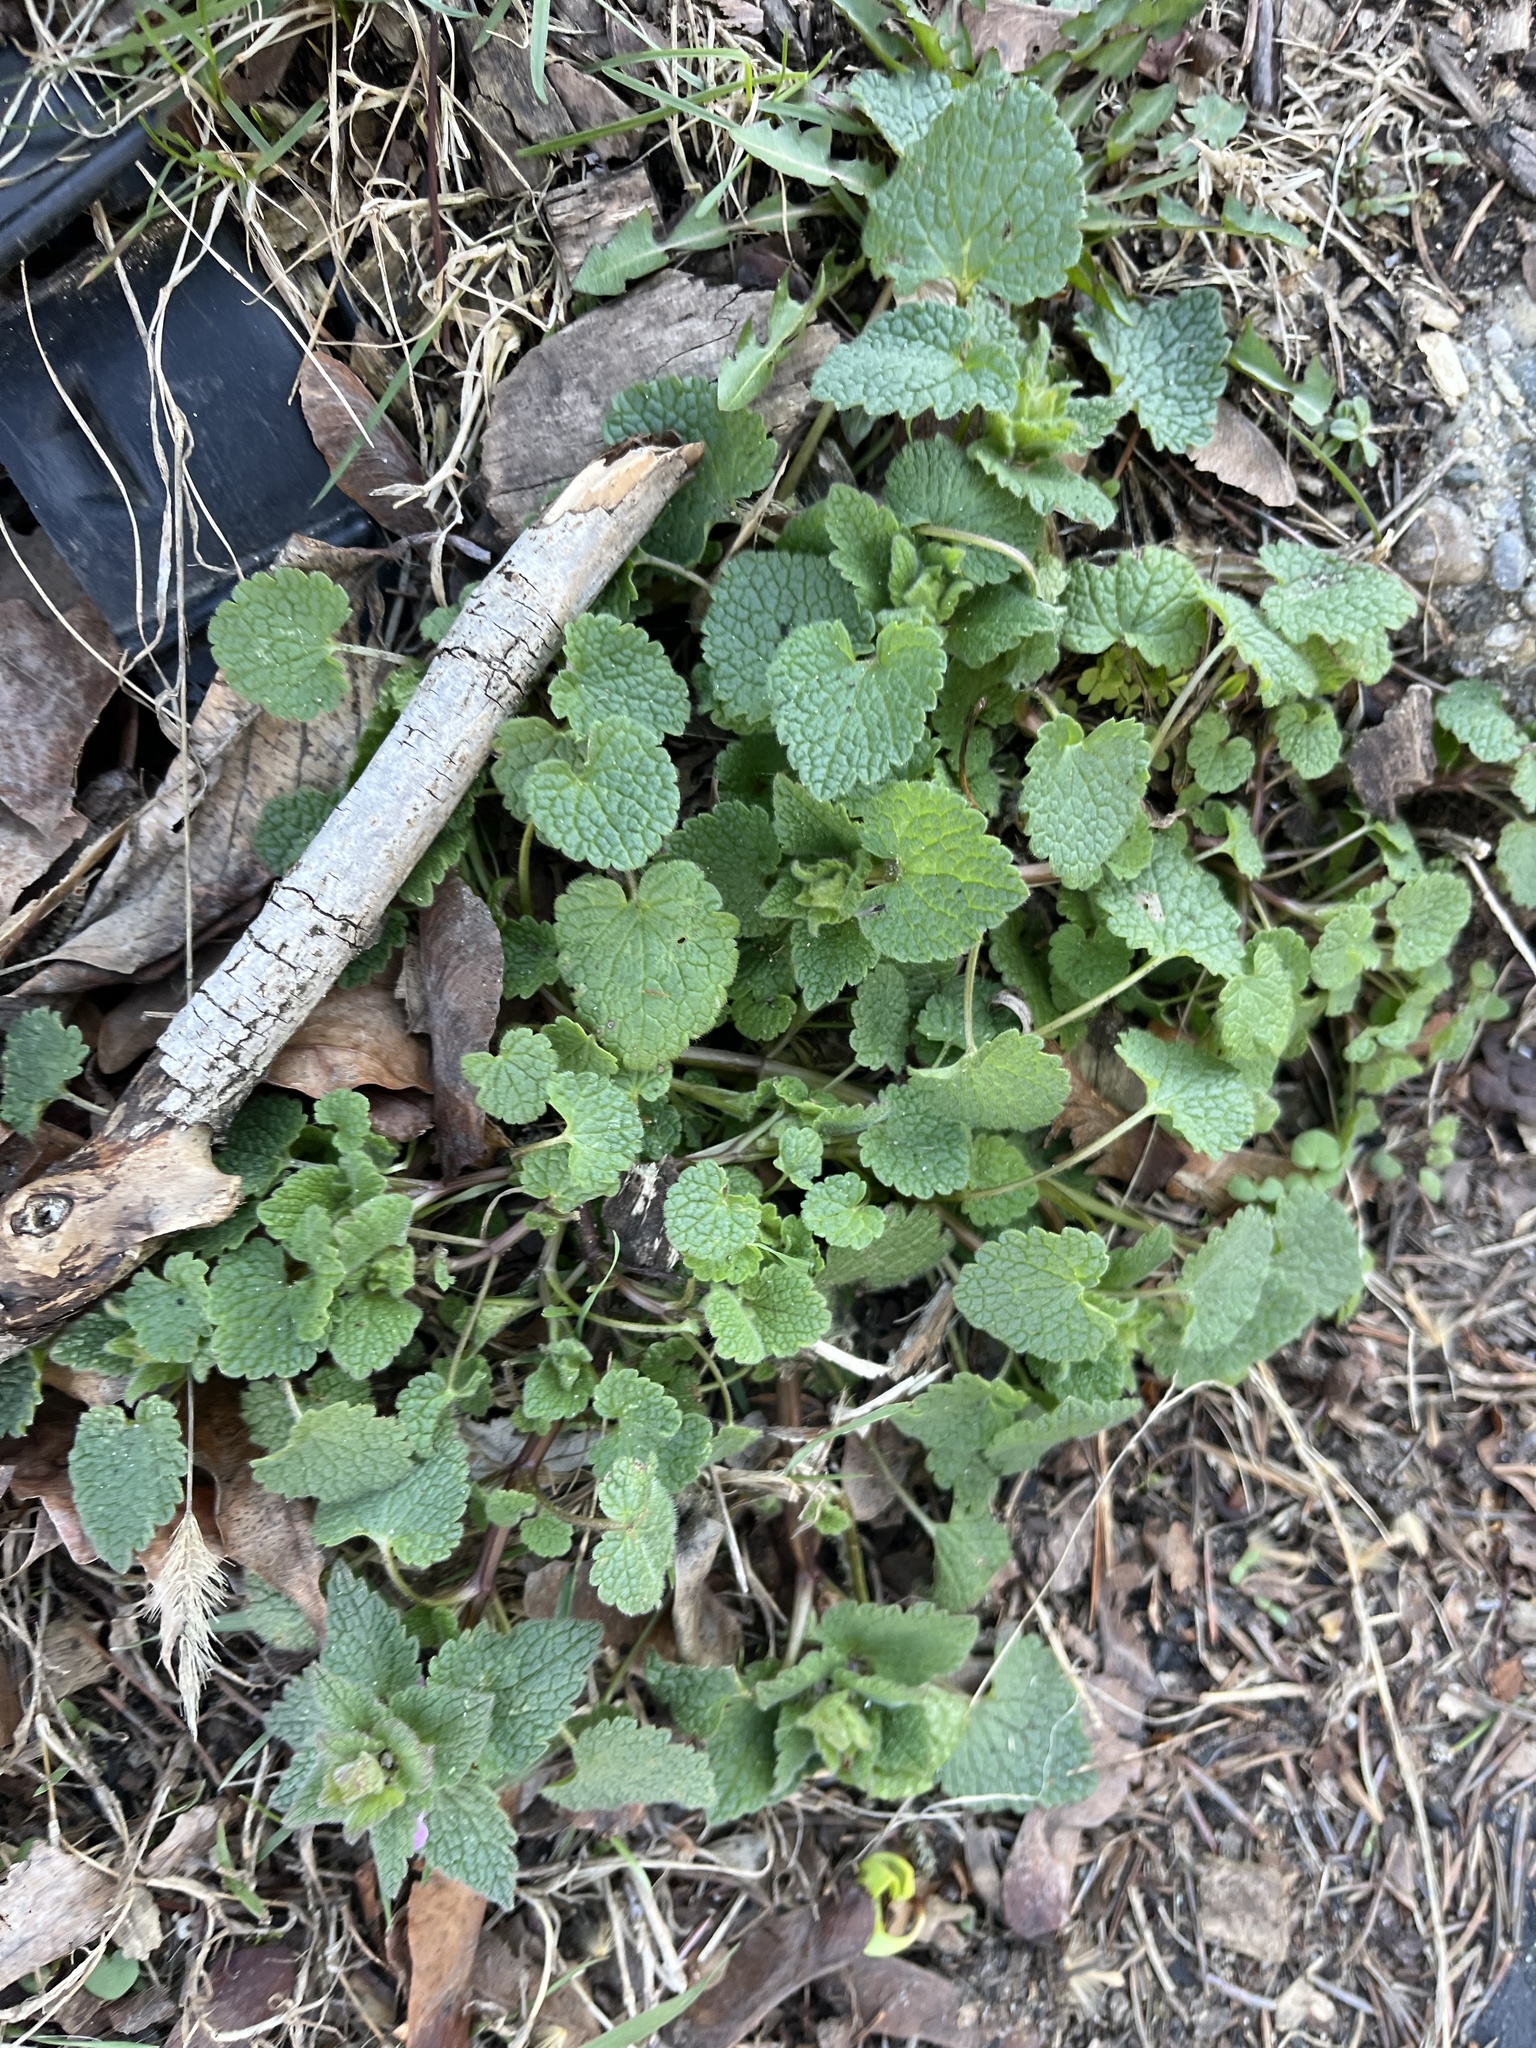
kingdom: Plantae
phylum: Tracheophyta
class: Magnoliopsida
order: Lamiales
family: Lamiaceae
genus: Lamium
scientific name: Lamium purpureum
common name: Red dead-nettle
